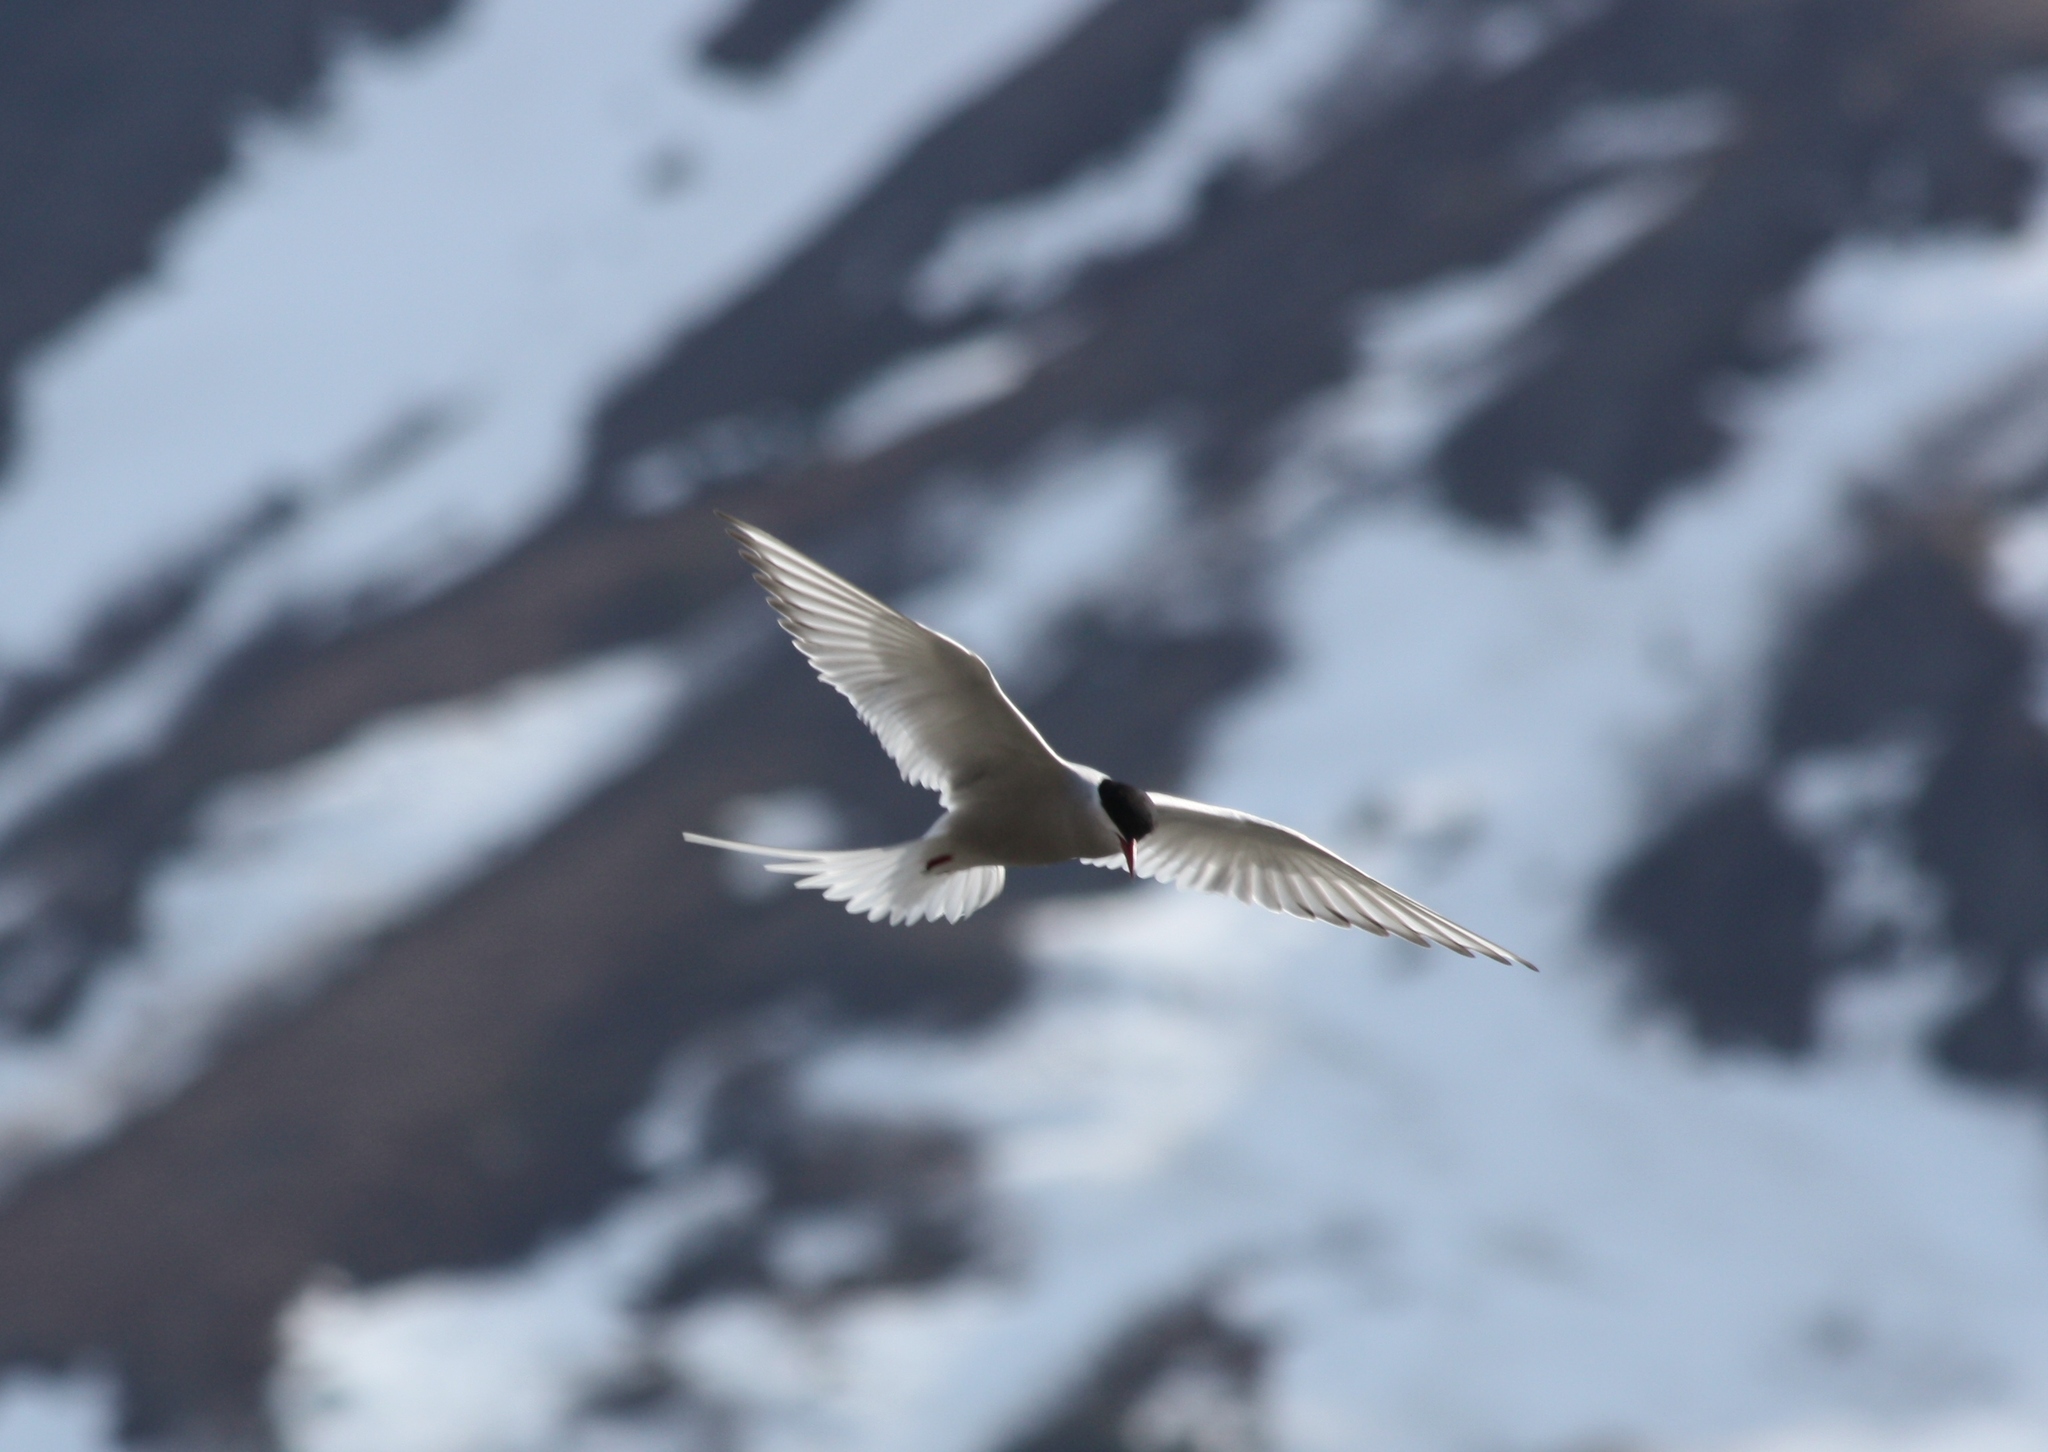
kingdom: Animalia
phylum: Chordata
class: Aves
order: Charadriiformes
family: Laridae
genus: Sterna
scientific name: Sterna paradisaea
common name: Arctic tern
